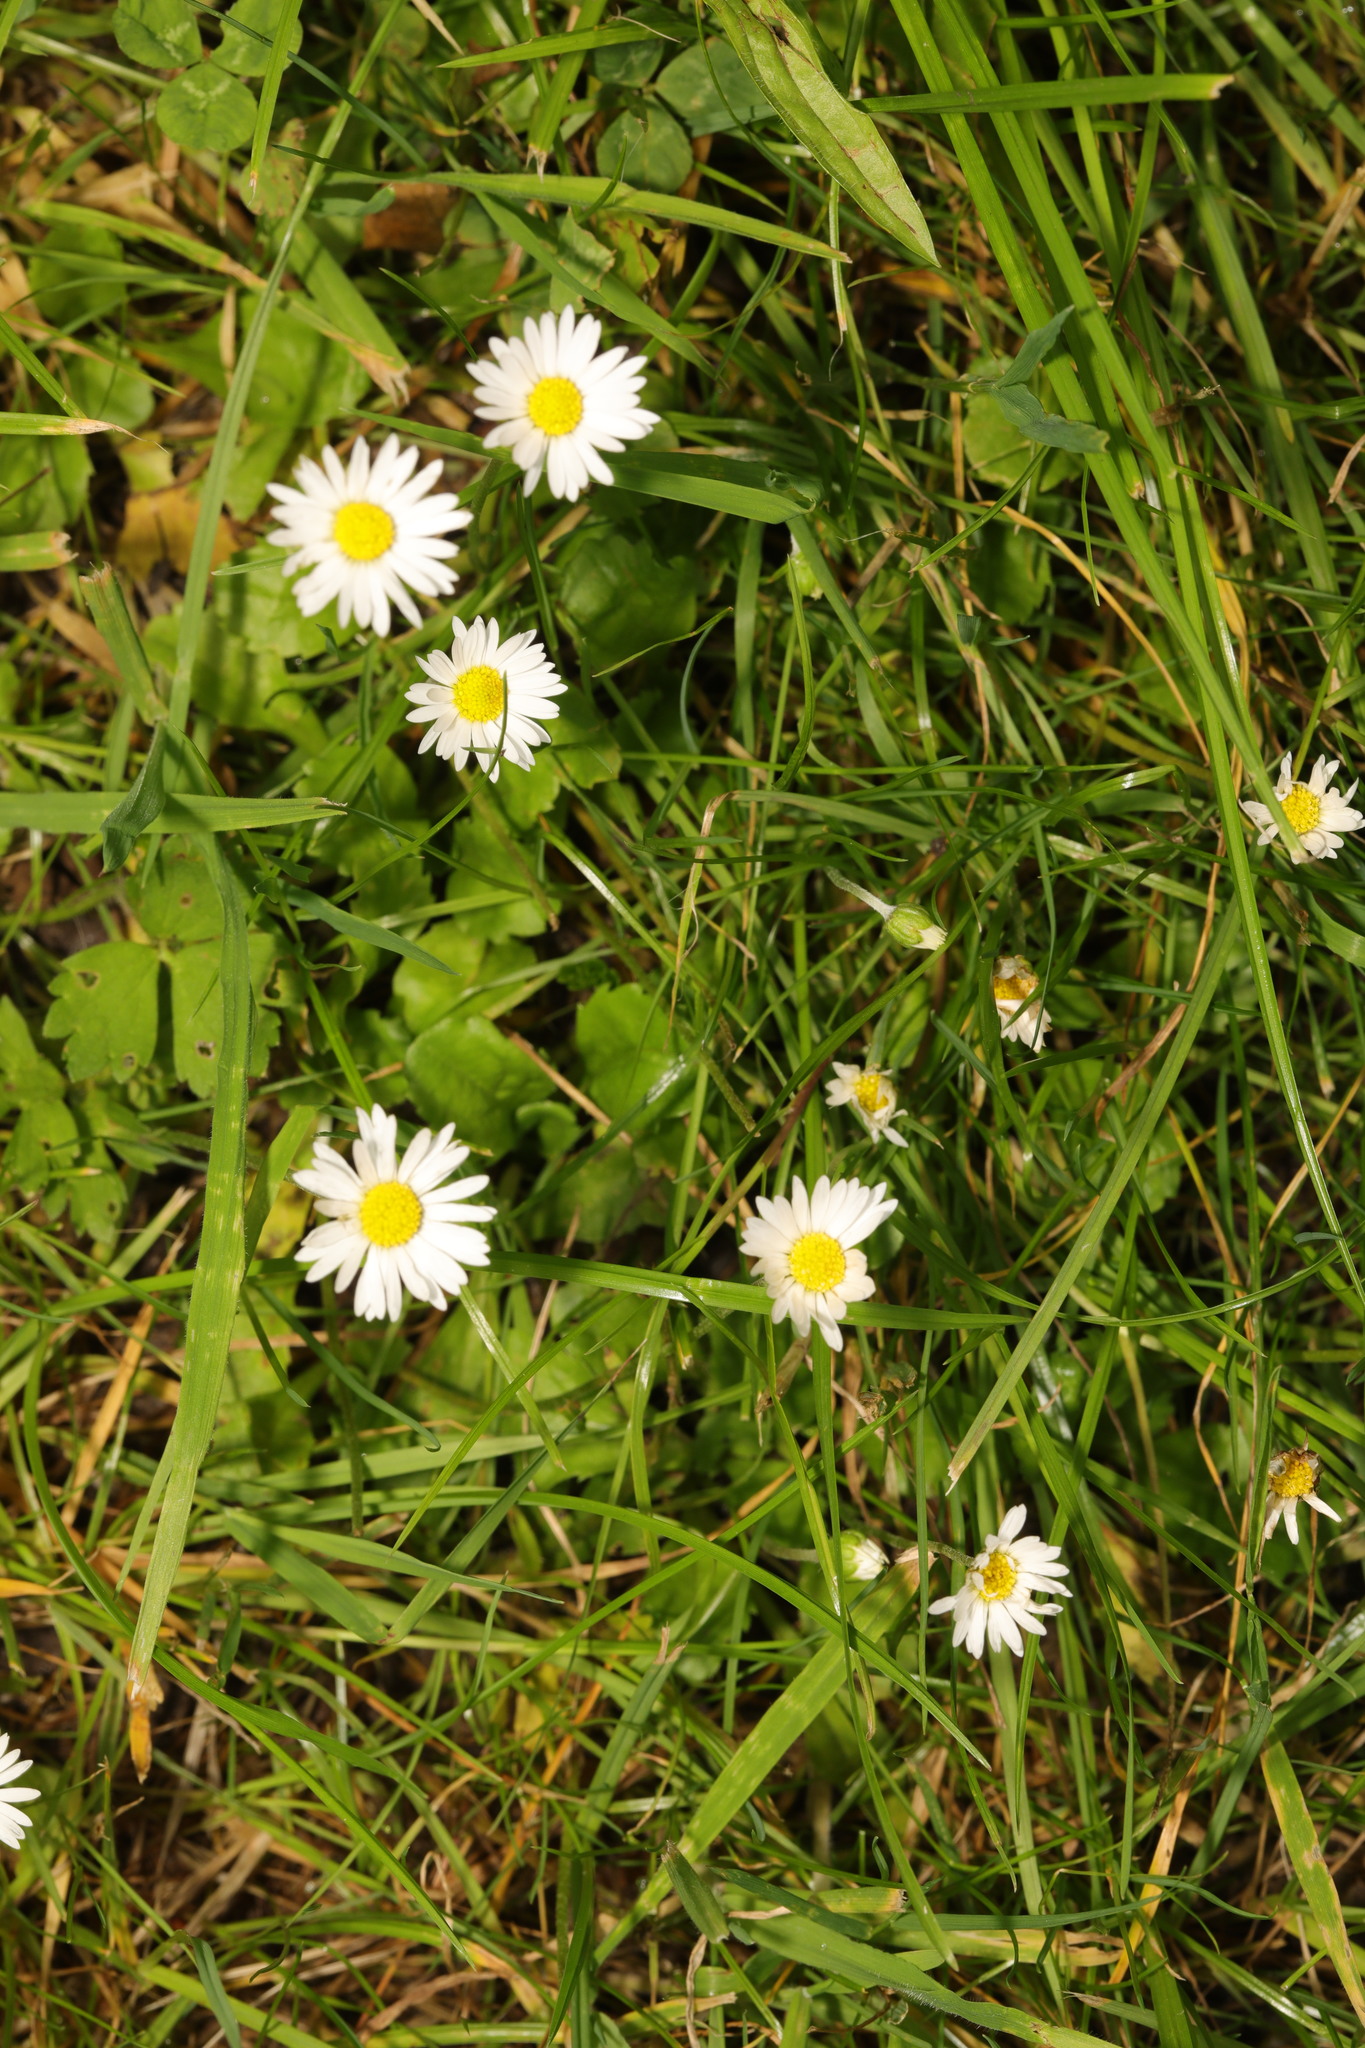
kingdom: Plantae
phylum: Tracheophyta
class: Magnoliopsida
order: Asterales
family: Asteraceae
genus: Bellis
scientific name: Bellis perennis
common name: Lawndaisy
